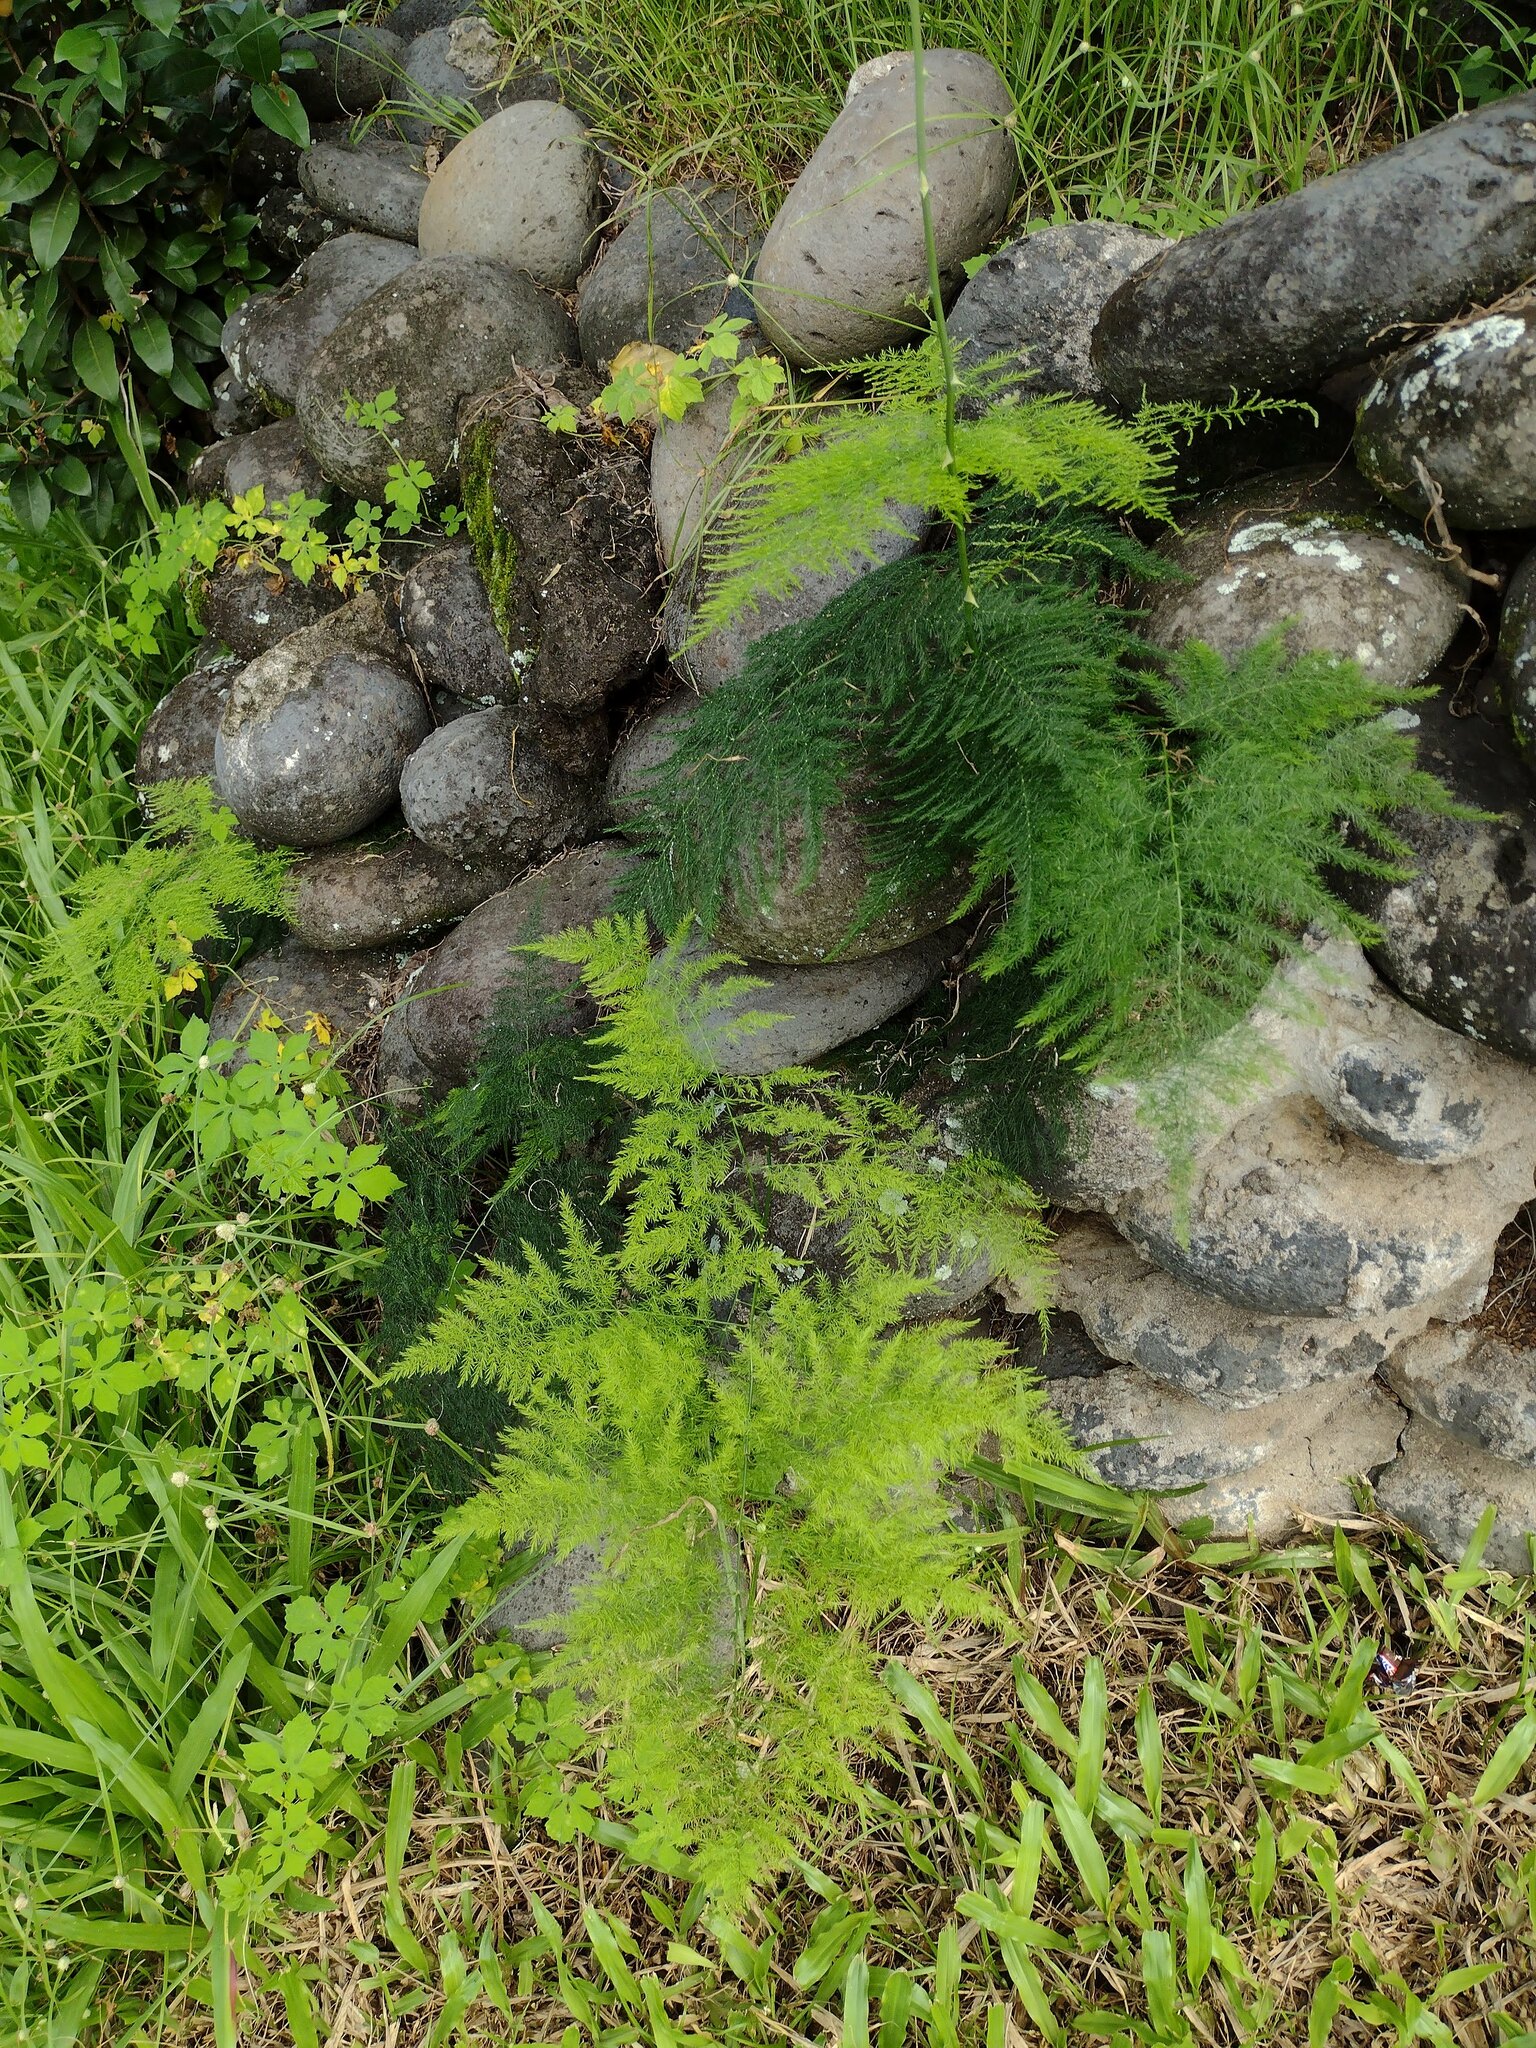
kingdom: Plantae
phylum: Tracheophyta
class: Liliopsida
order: Asparagales
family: Asparagaceae
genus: Asparagus
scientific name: Asparagus setaceus
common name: Common asparagus fern
